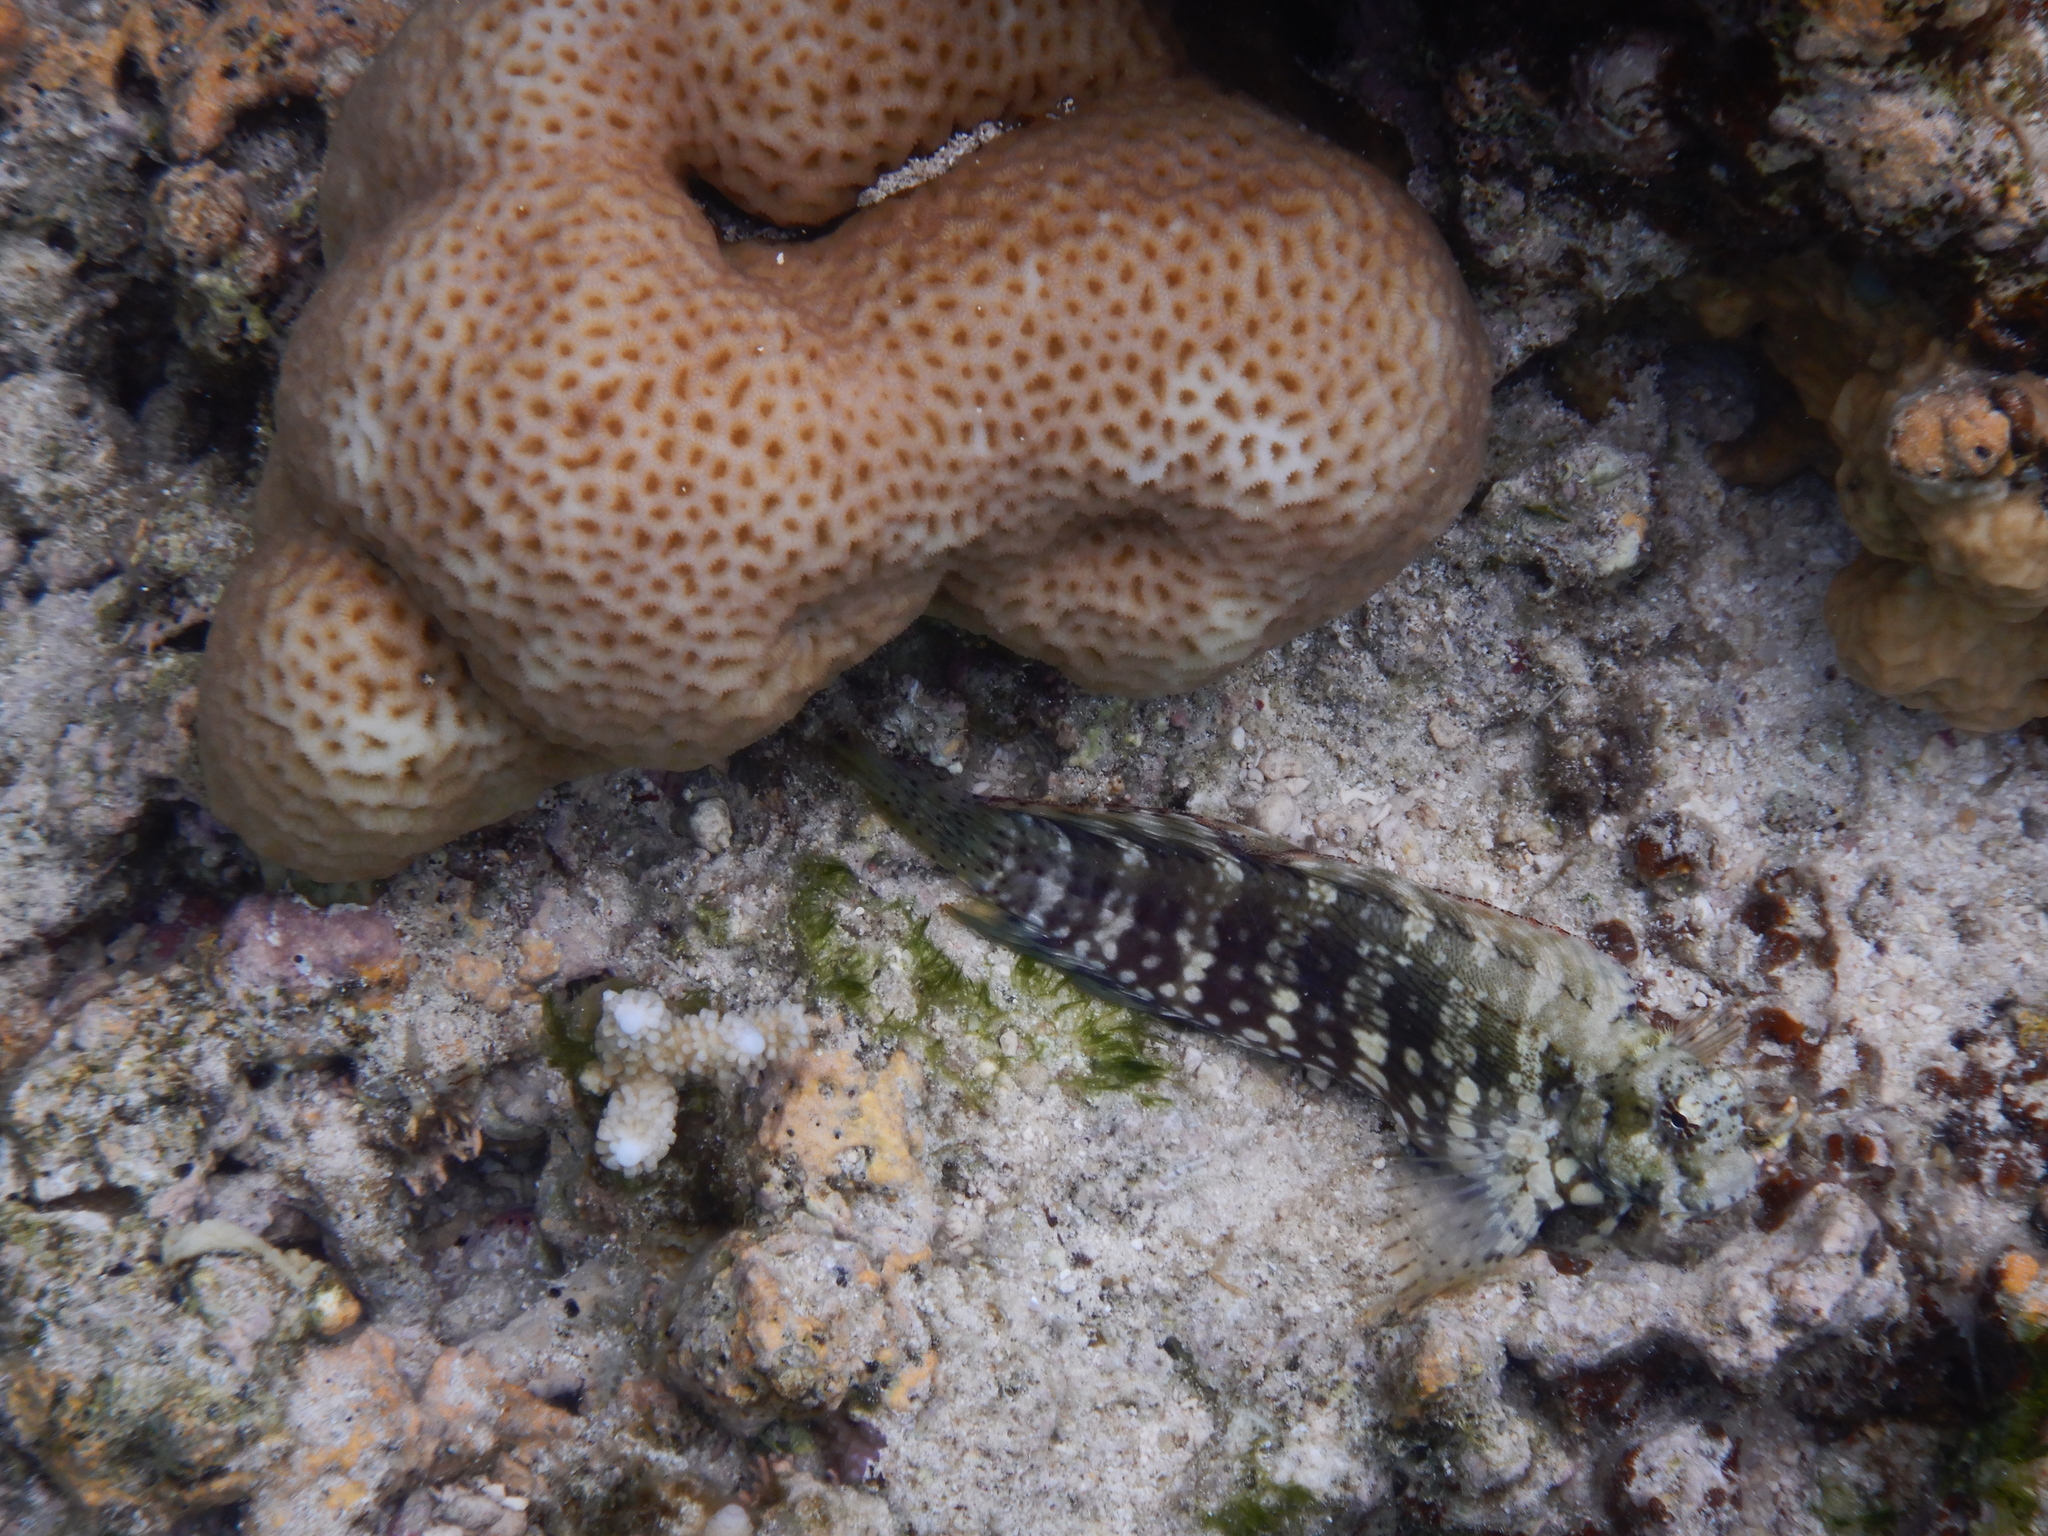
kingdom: Animalia
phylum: Chordata
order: Perciformes
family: Blenniidae
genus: Salarias
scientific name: Salarias fasciatus
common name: Jewelled blenny
